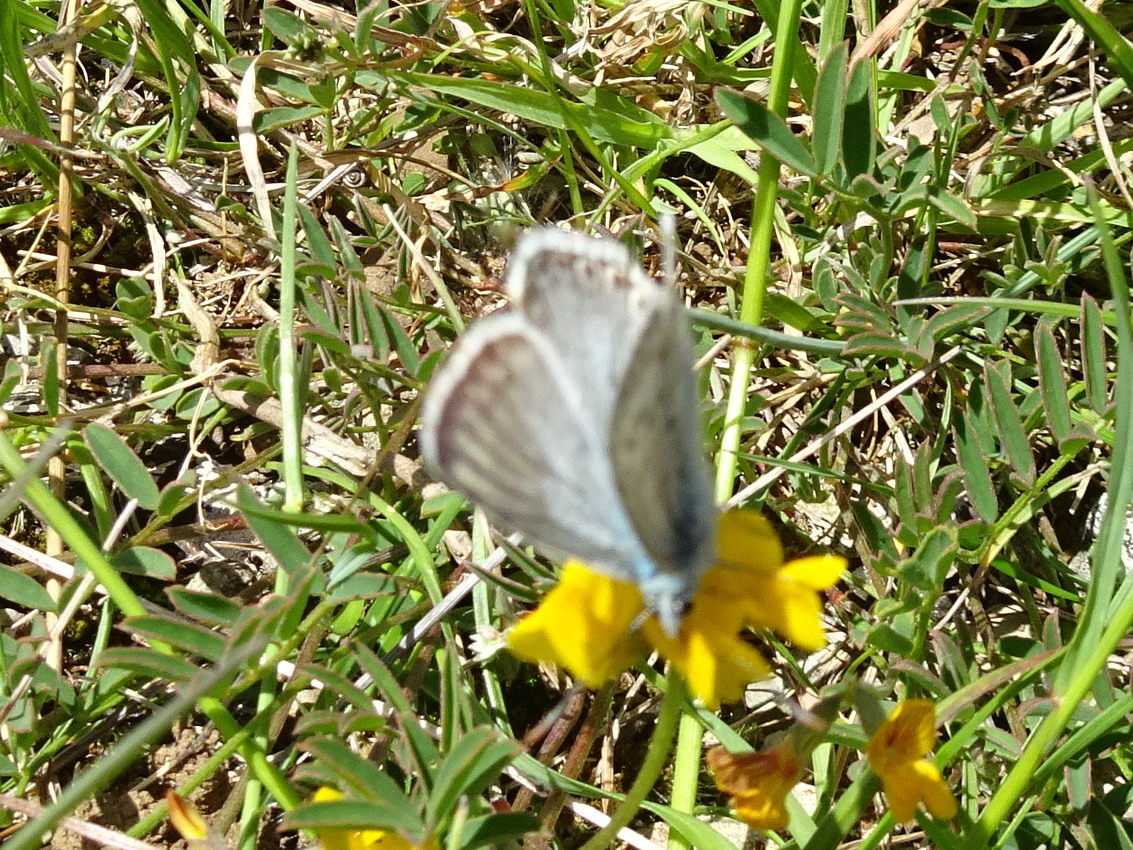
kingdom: Animalia
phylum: Arthropoda
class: Insecta
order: Lepidoptera
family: Lycaenidae
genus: Lysandra
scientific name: Lysandra hispana
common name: Provence chalkhill blue
